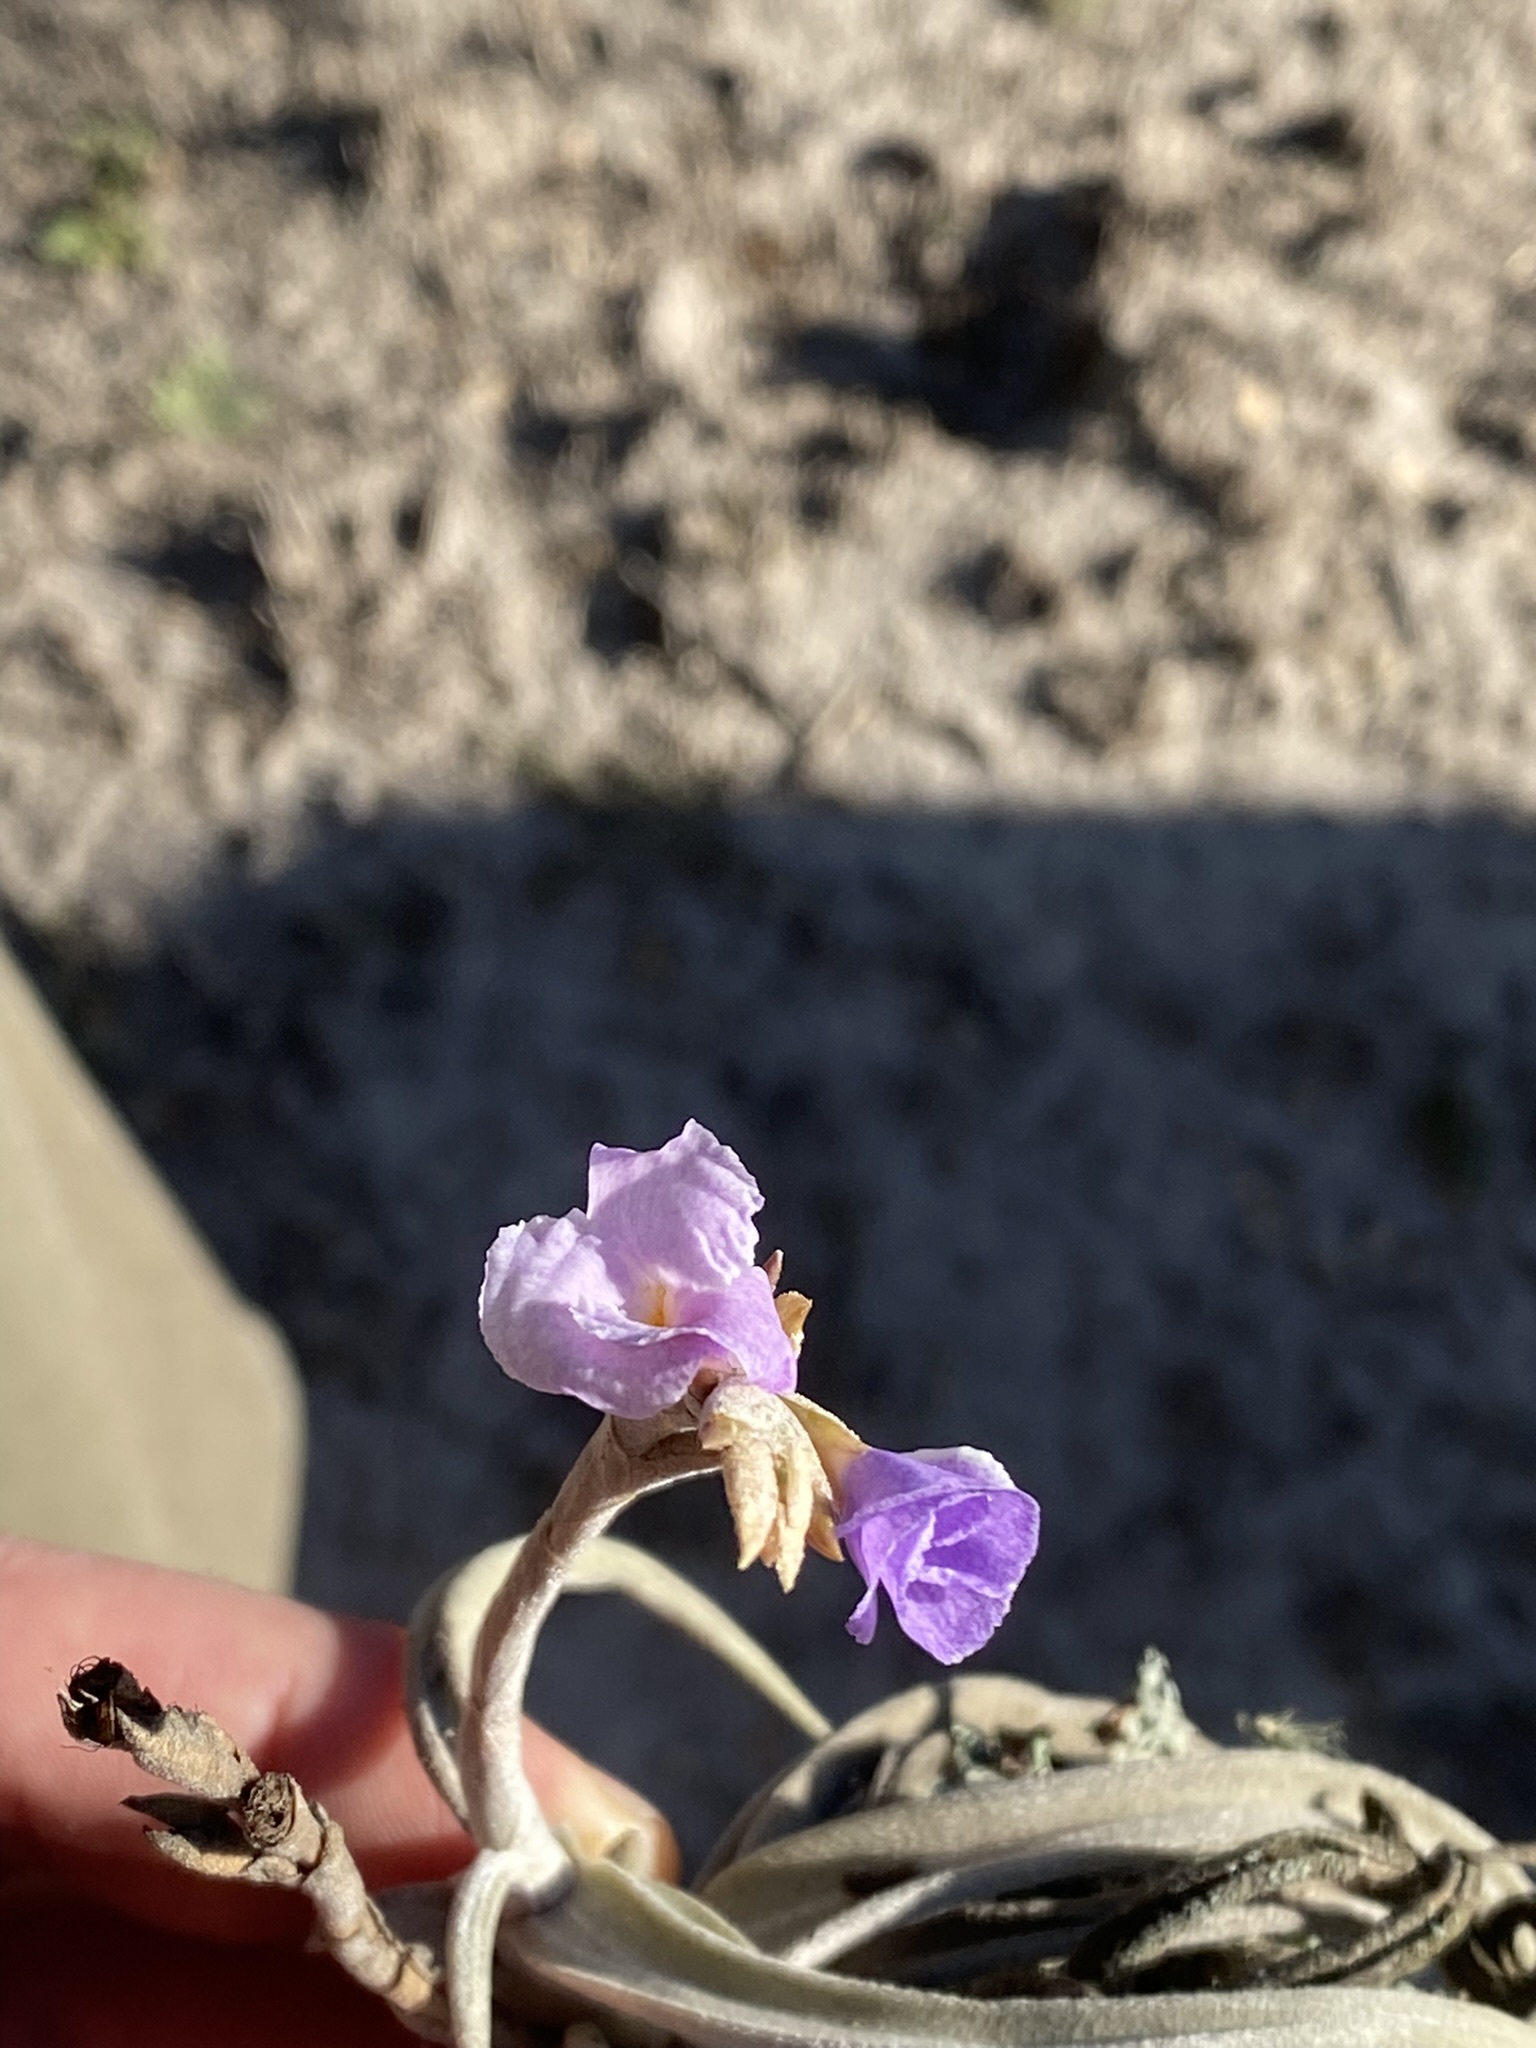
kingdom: Plantae
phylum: Tracheophyta
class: Liliopsida
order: Poales
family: Bromeliaceae
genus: Tillandsia
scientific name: Tillandsia duratii
